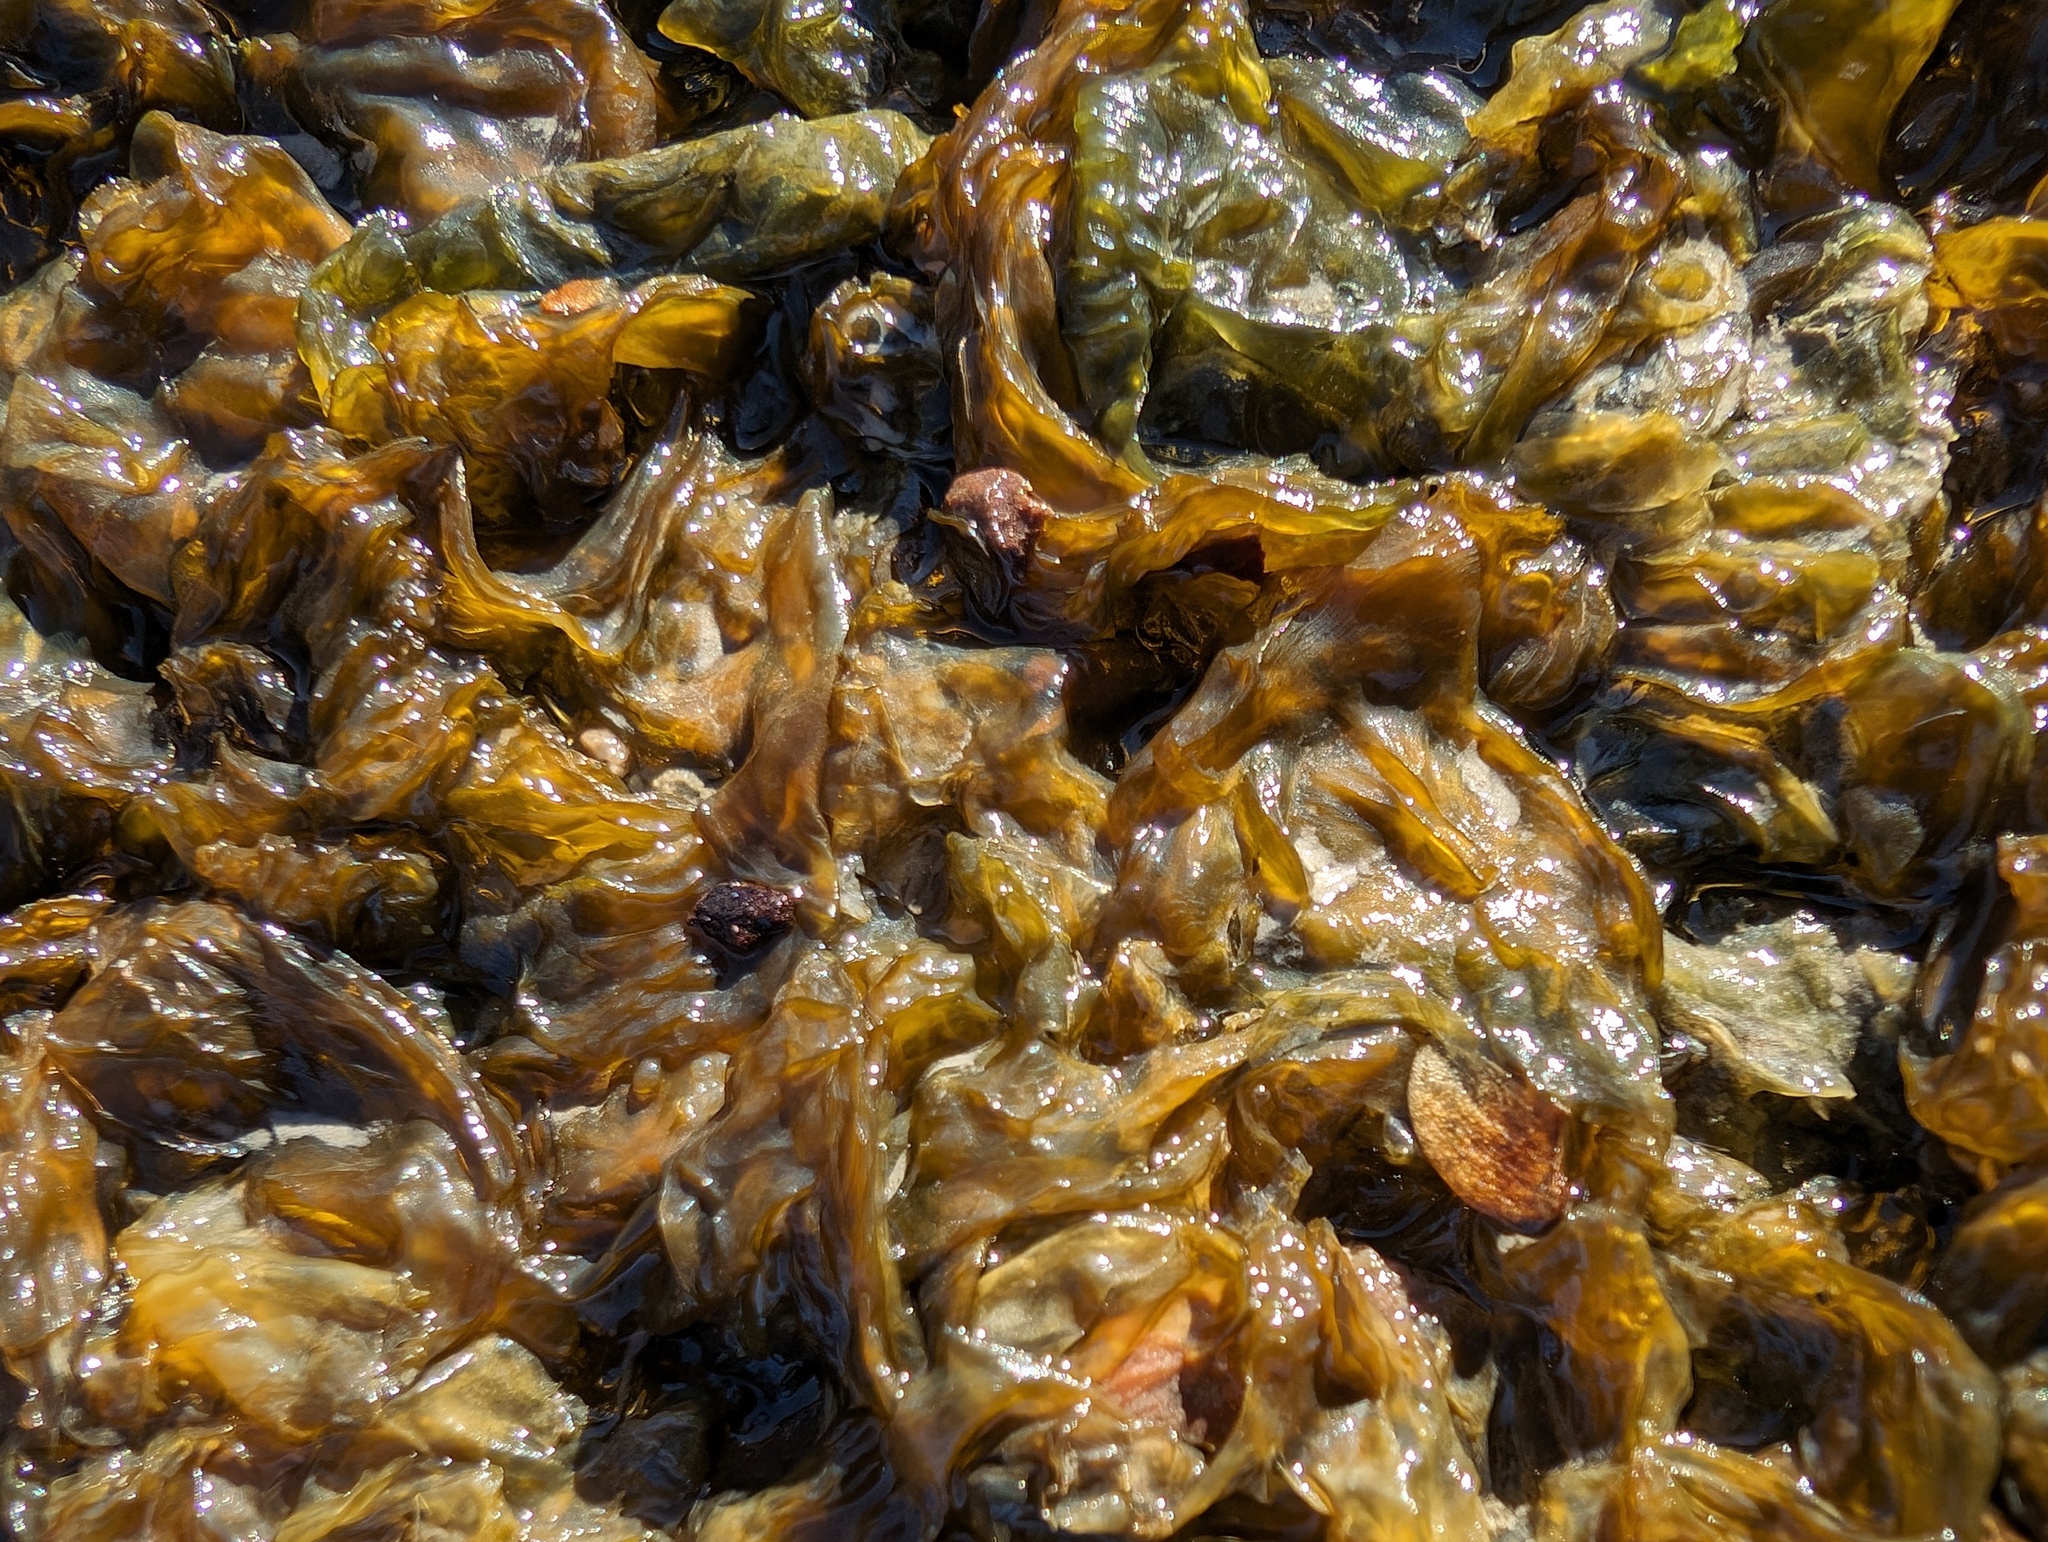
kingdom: Bacteria
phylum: Cyanobacteria
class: Cyanobacteriia
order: Cyanobacteriales
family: Nostocaceae
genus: Nostoc
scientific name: Nostoc commune
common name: Star jelly
